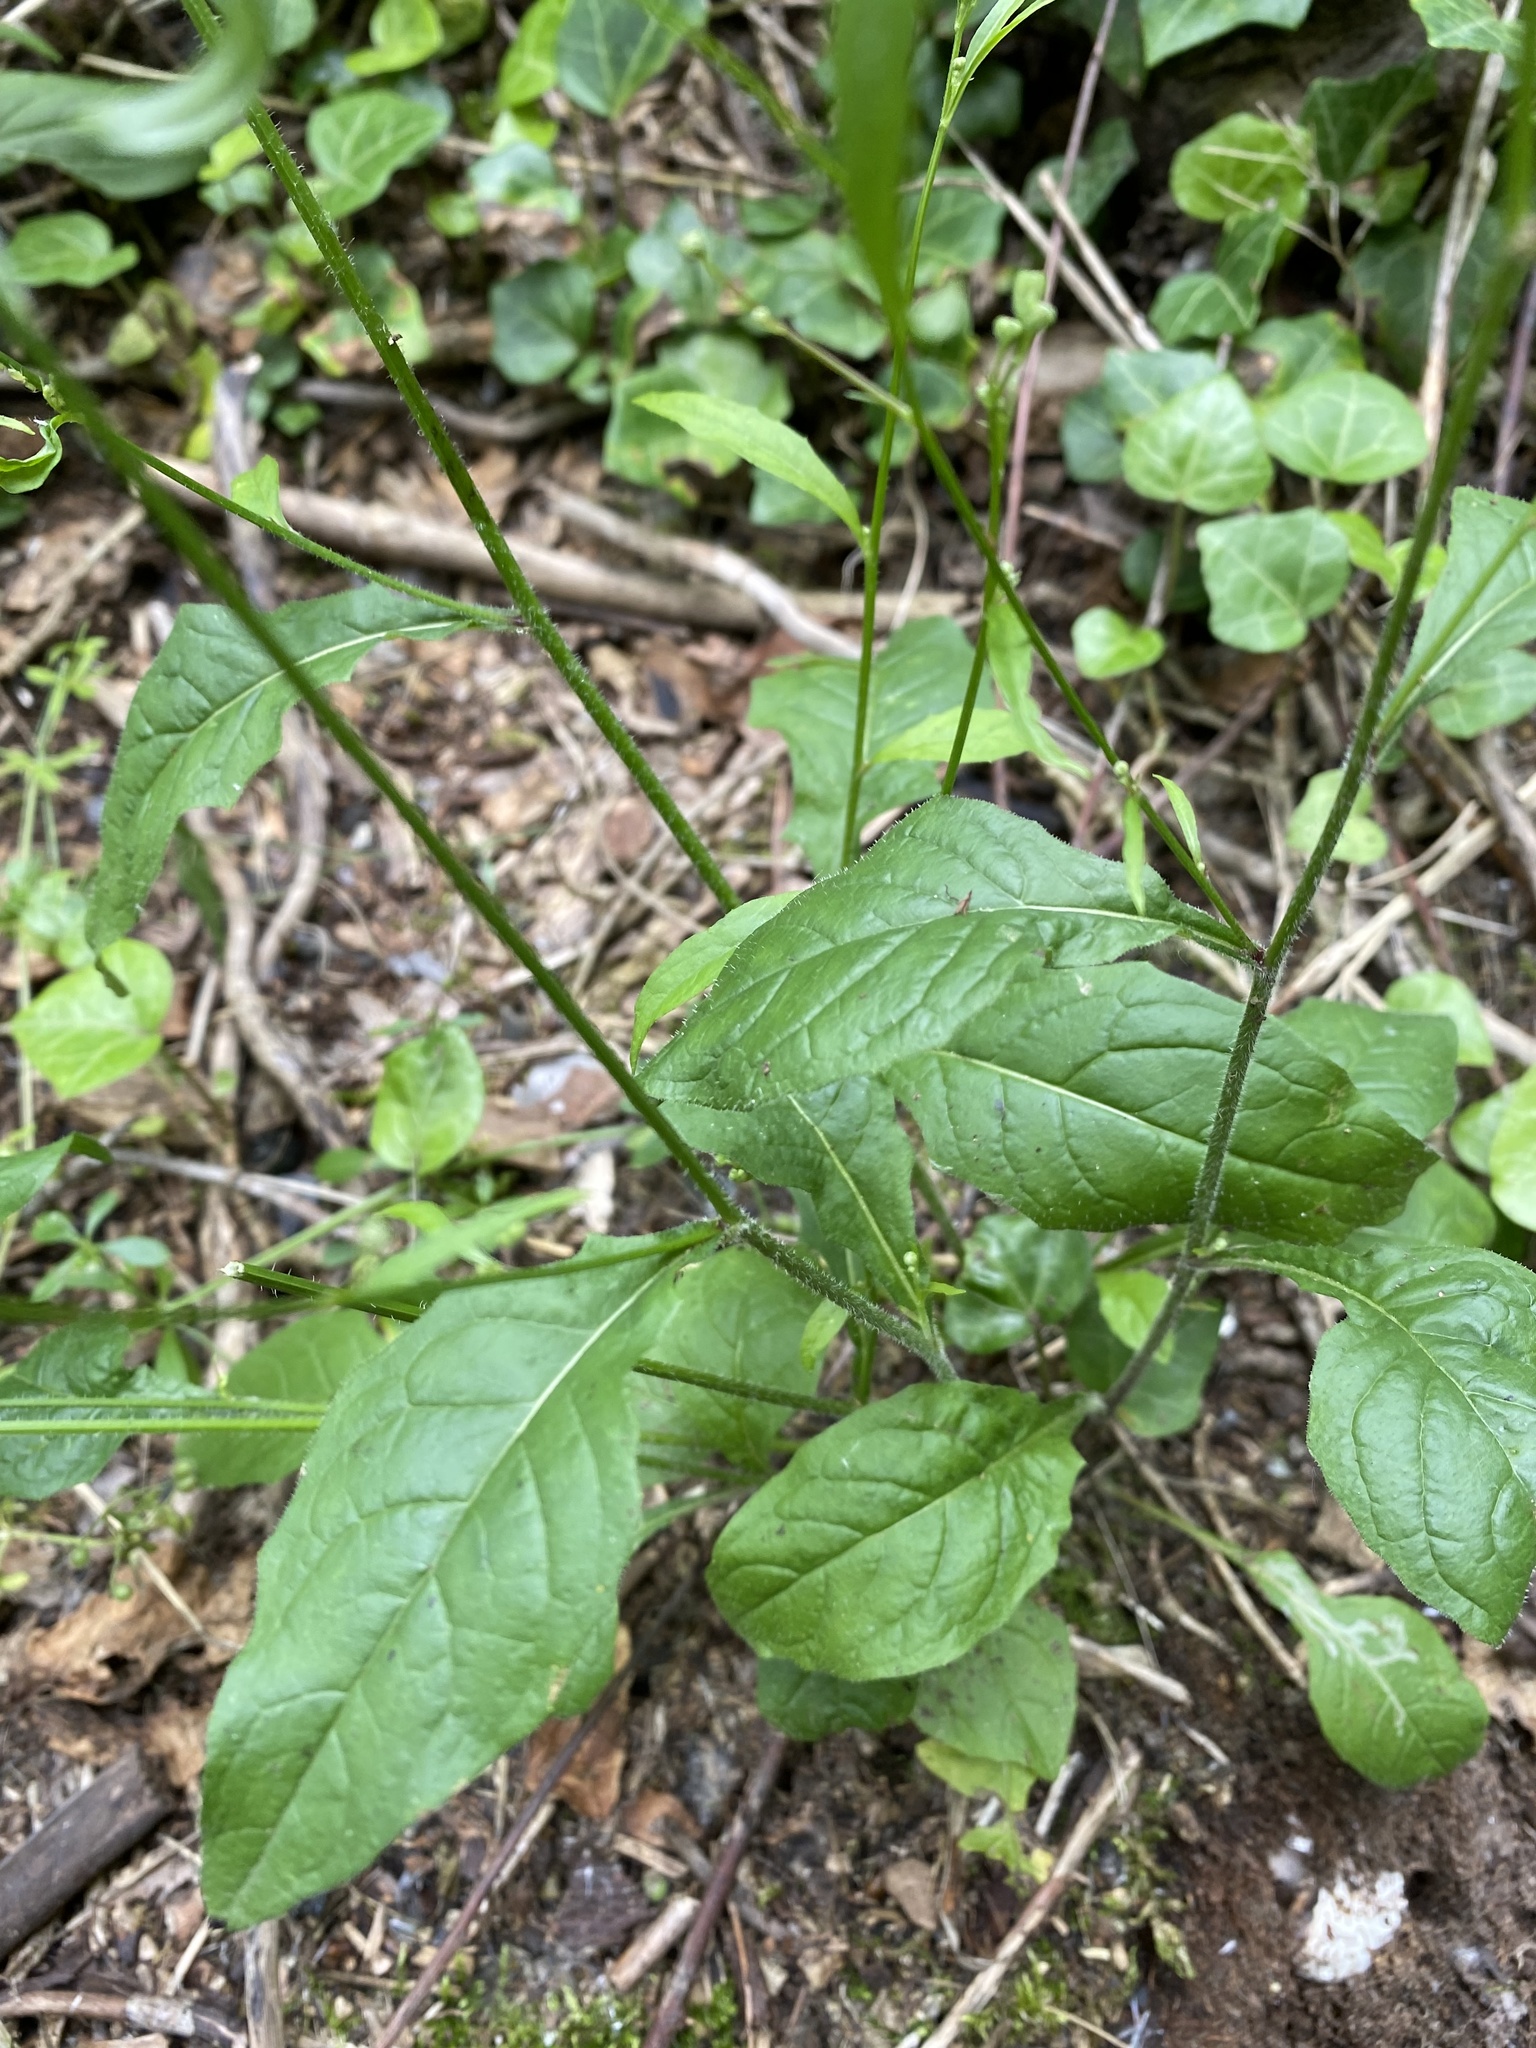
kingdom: Plantae
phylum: Tracheophyta
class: Magnoliopsida
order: Asterales
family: Asteraceae
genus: Lapsana
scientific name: Lapsana communis
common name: Nipplewort
